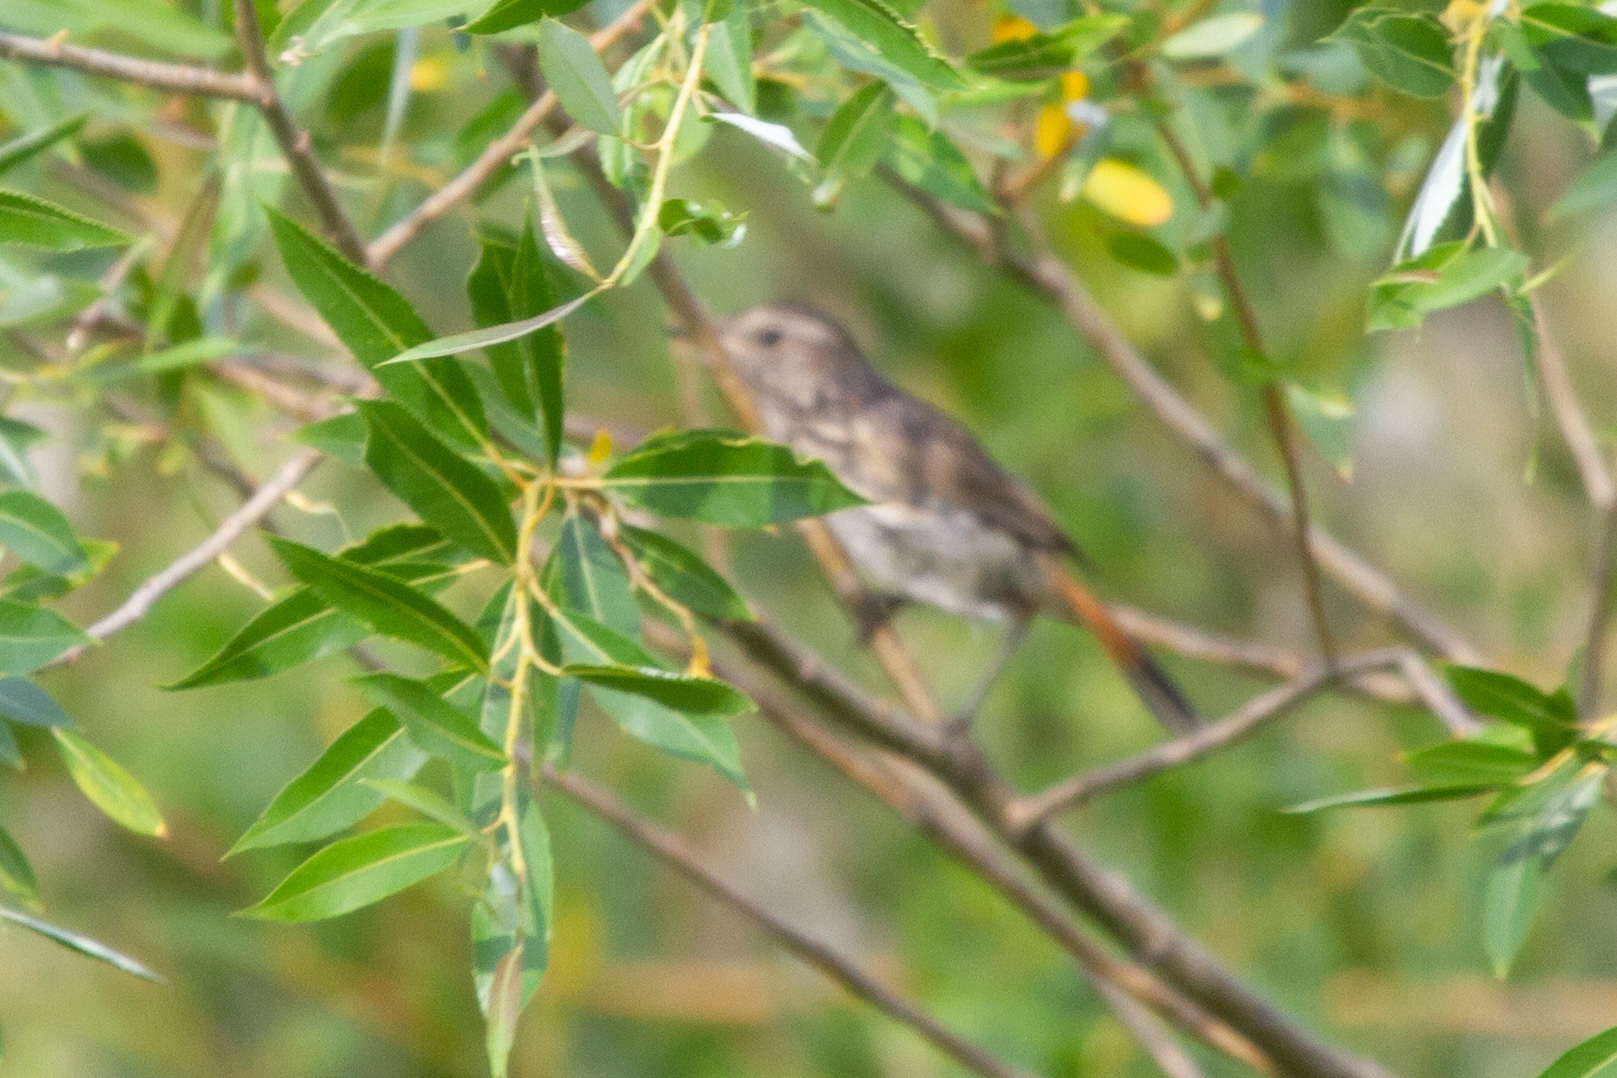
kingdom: Animalia
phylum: Chordata
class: Aves
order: Passeriformes
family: Muscicapidae
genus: Luscinia
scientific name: Luscinia svecica
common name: Bluethroat
